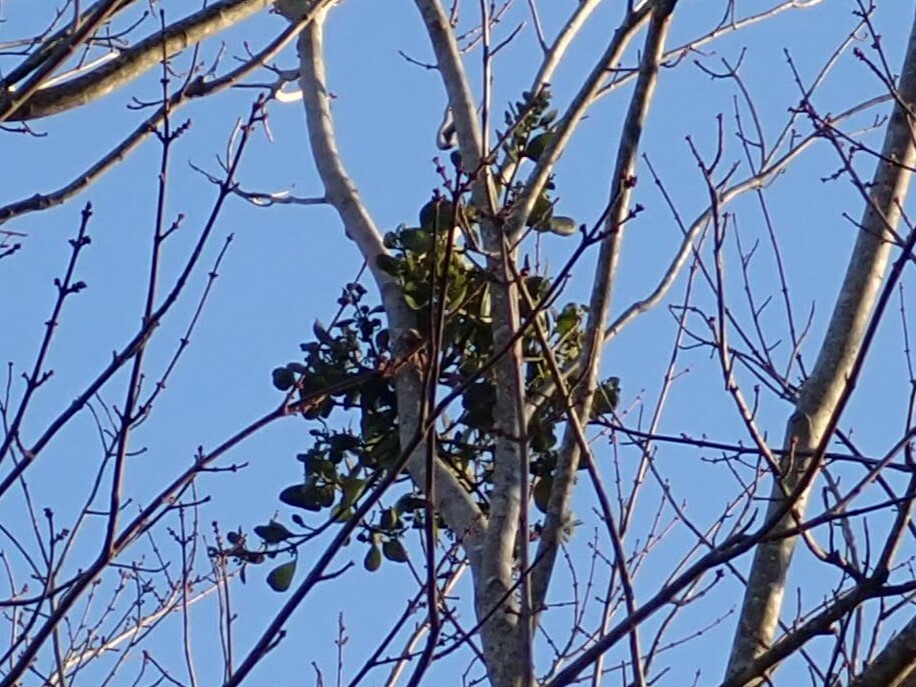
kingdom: Plantae
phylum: Tracheophyta
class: Magnoliopsida
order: Santalales
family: Viscaceae
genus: Phoradendron
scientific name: Phoradendron leucarpum
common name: Pacific mistletoe
